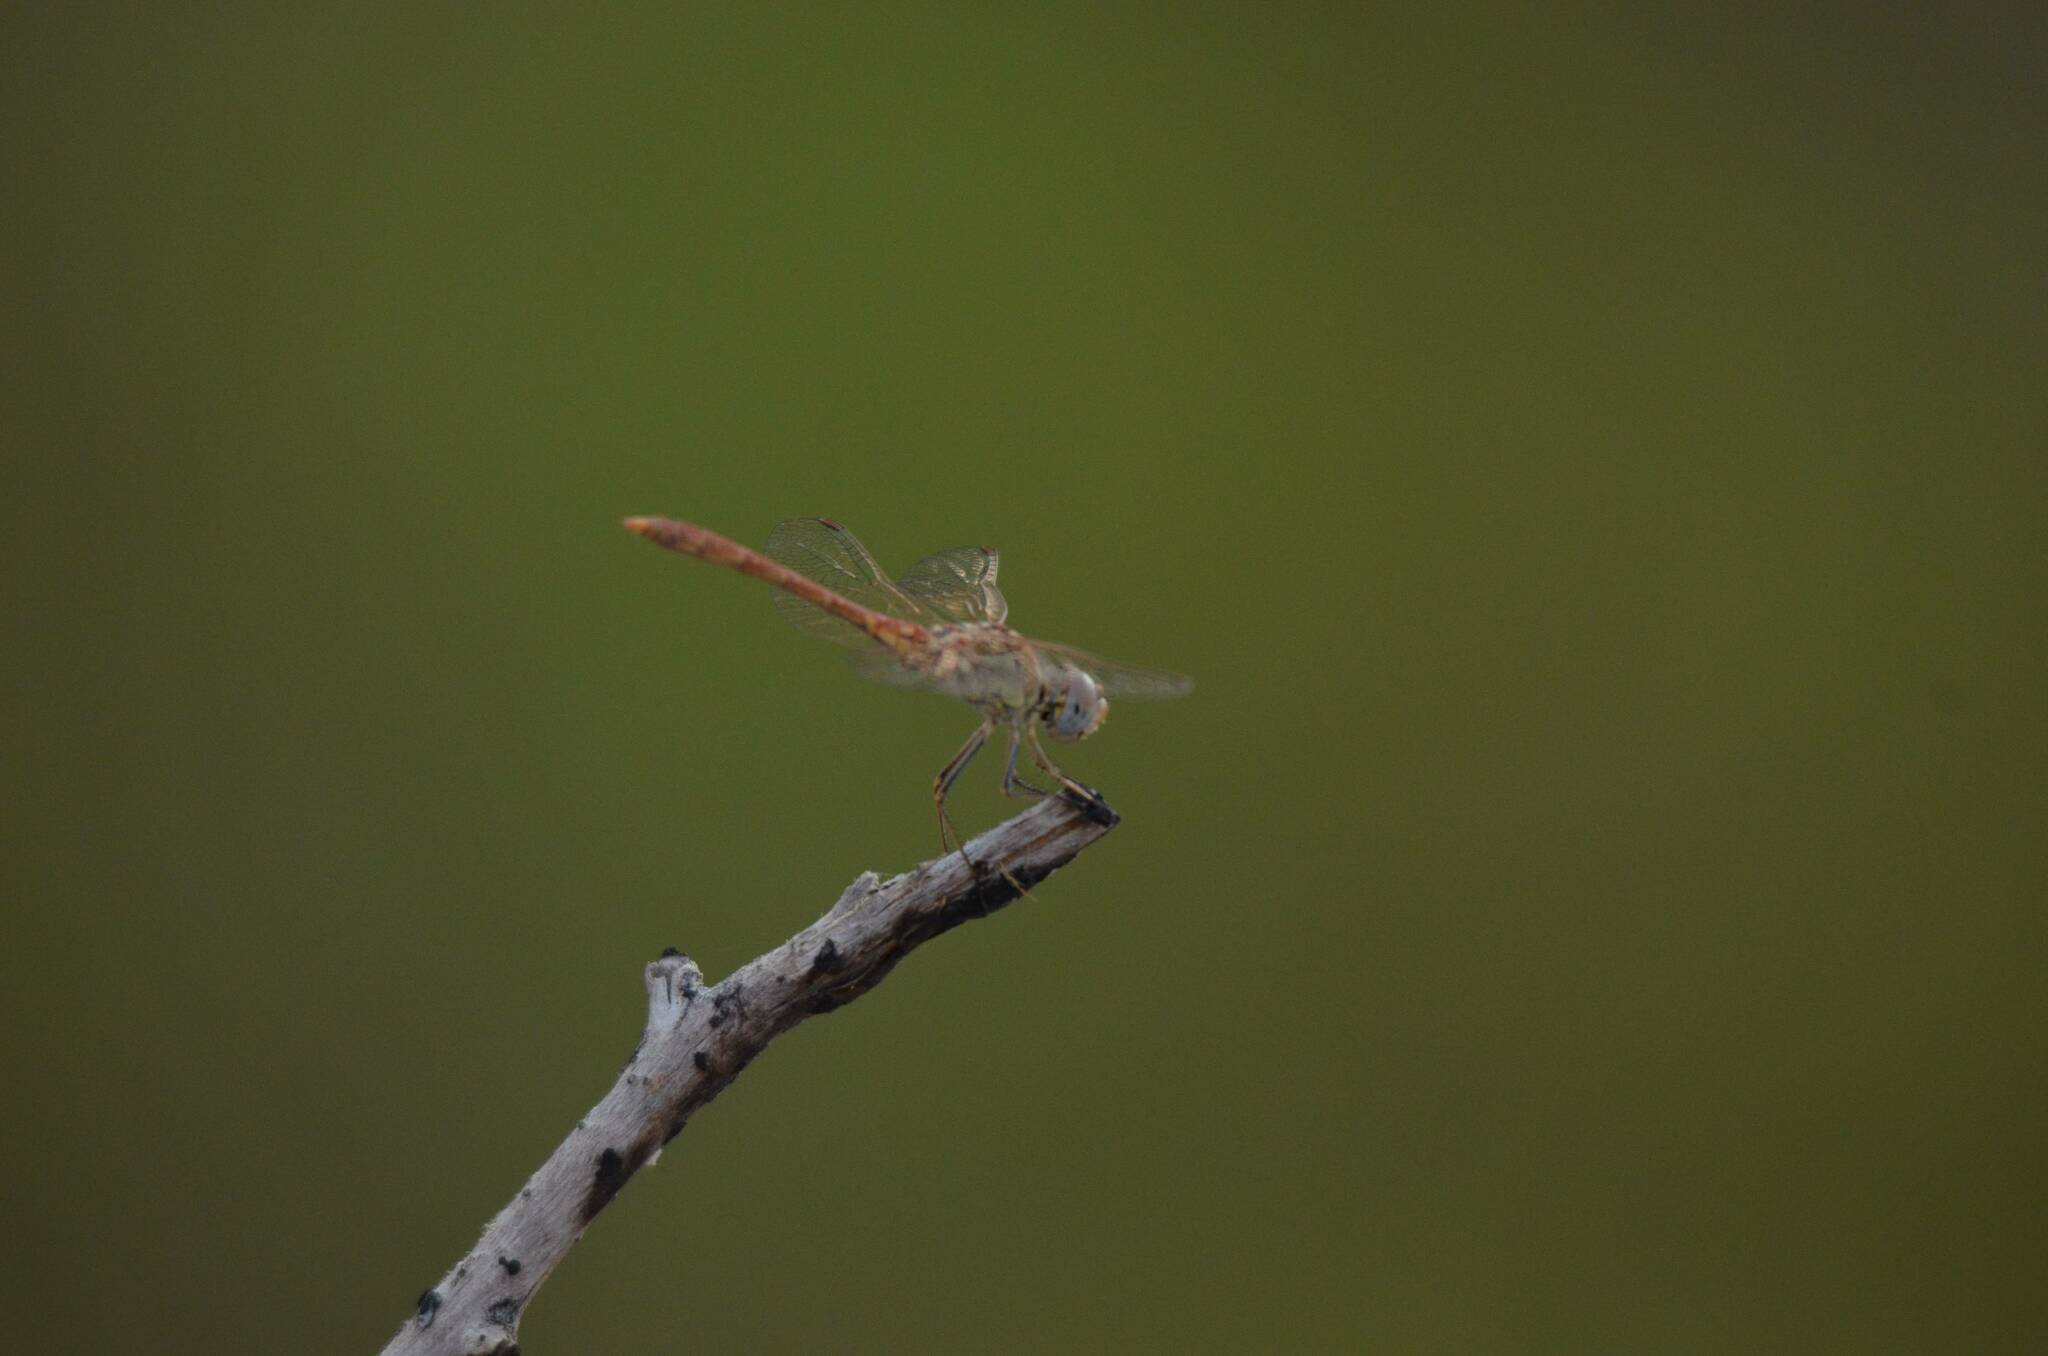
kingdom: Animalia
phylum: Arthropoda
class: Insecta
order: Odonata
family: Libellulidae
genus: Sympetrum
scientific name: Sympetrum fonscolombii
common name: Red-veined darter
